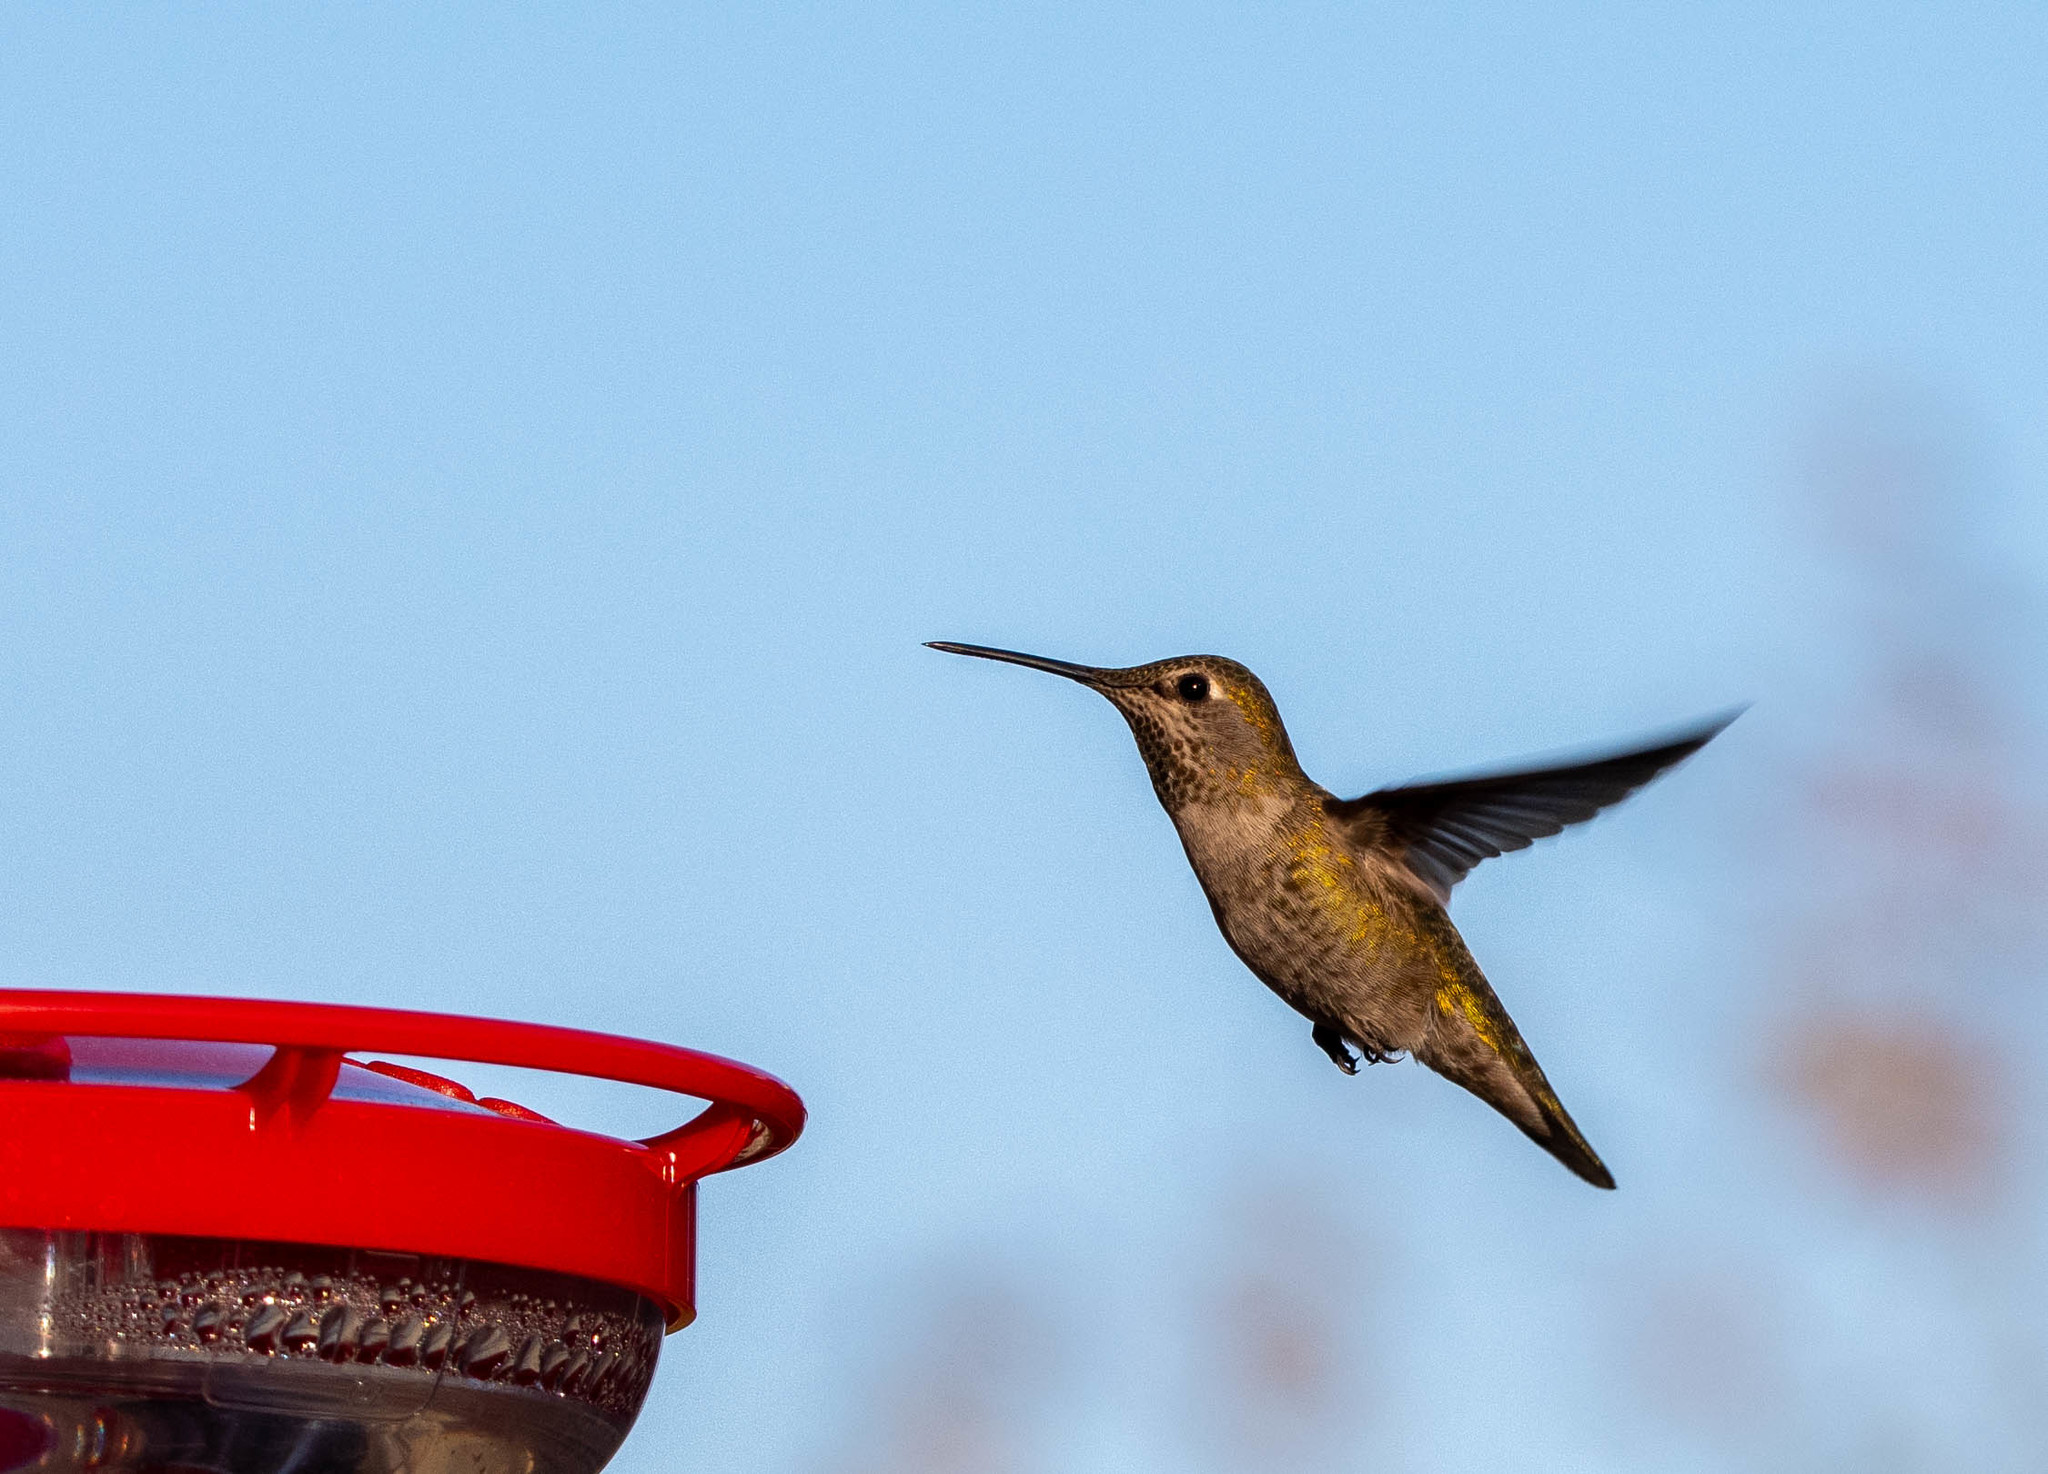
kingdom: Animalia
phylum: Chordata
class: Aves
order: Apodiformes
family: Trochilidae
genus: Calypte
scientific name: Calypte anna
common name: Anna's hummingbird
